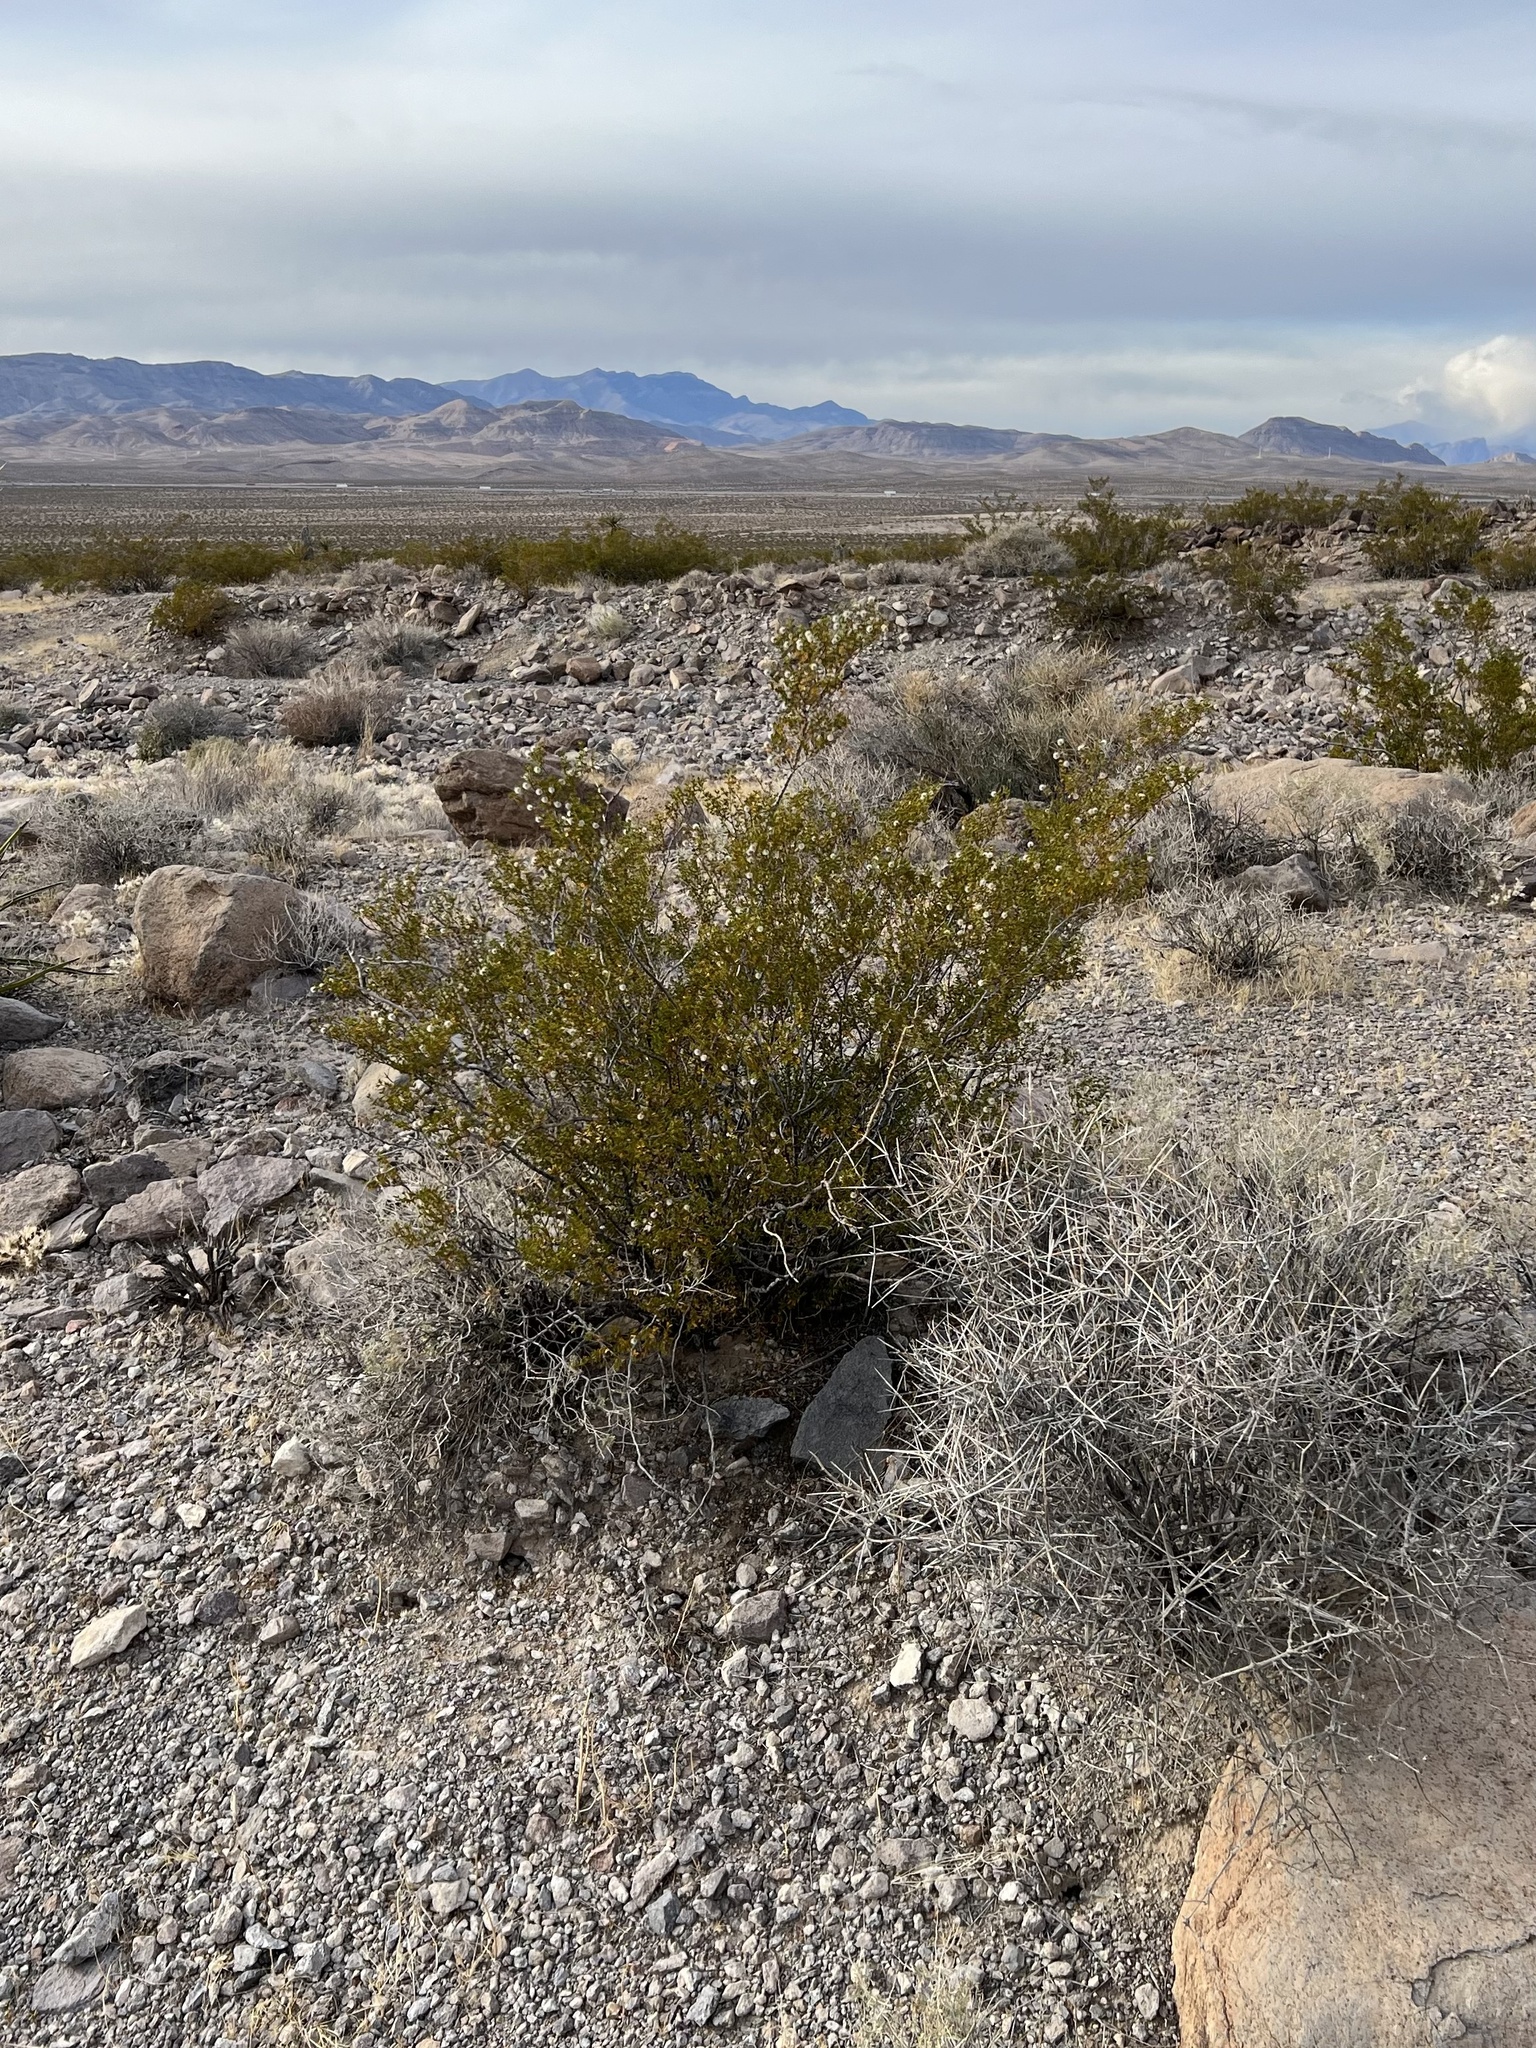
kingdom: Plantae
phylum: Tracheophyta
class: Magnoliopsida
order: Zygophyllales
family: Zygophyllaceae
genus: Larrea
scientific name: Larrea tridentata
